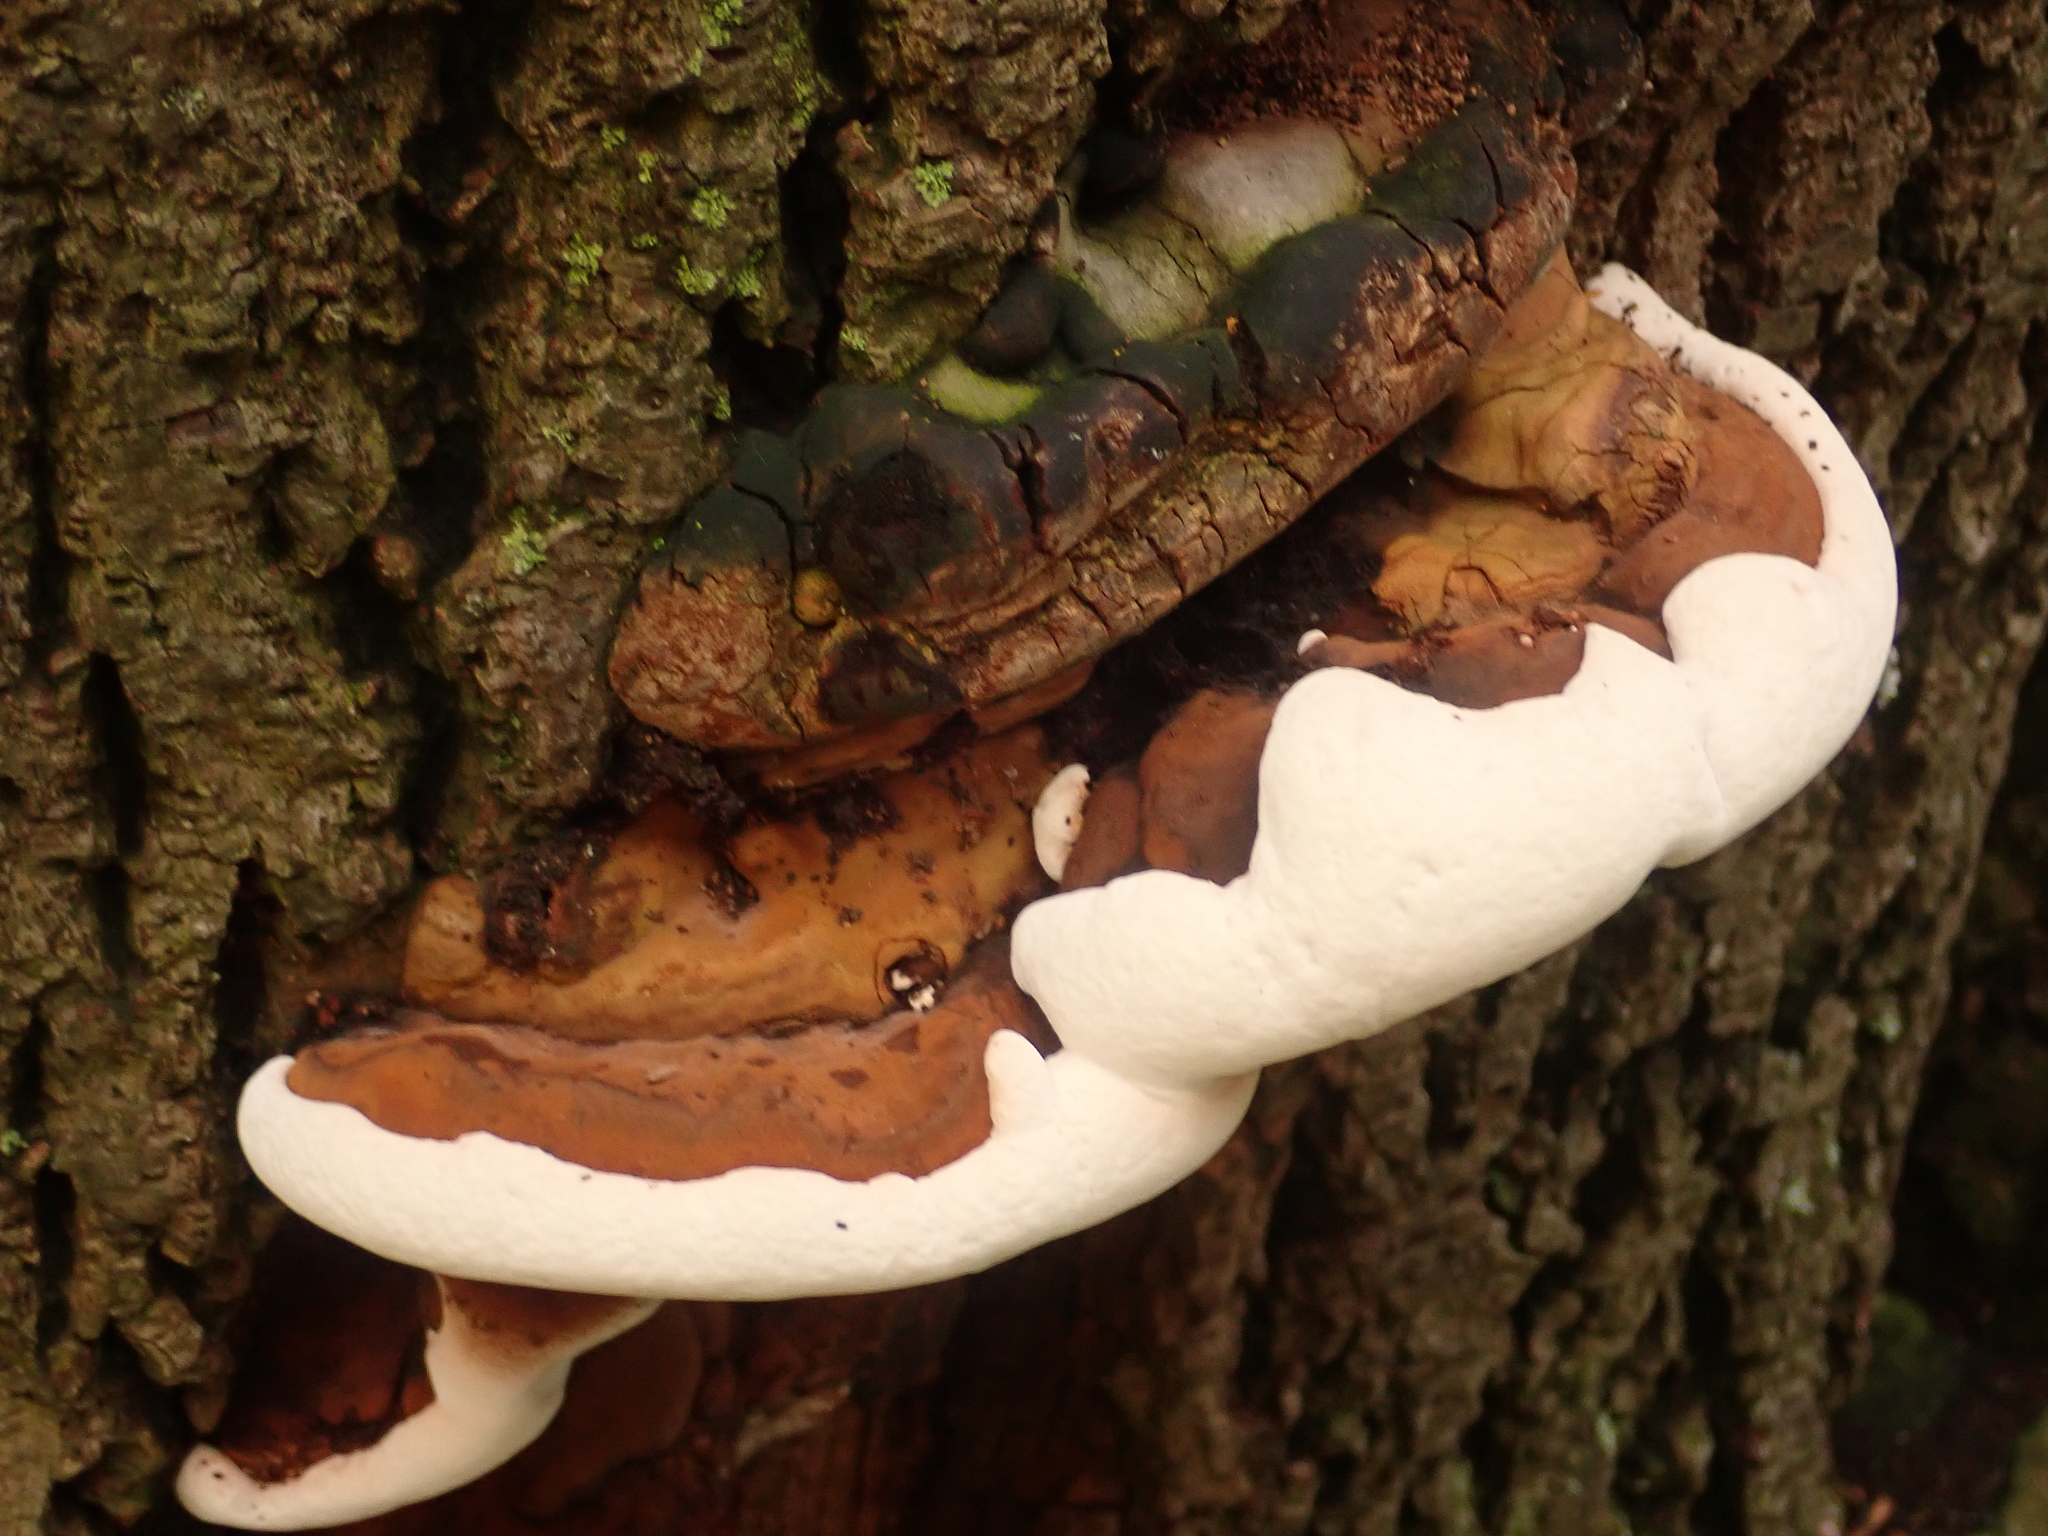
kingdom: Fungi
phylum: Basidiomycota
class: Agaricomycetes
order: Polyporales
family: Polyporaceae
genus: Ganoderma
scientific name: Ganoderma applanatum
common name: Artist's bracket
